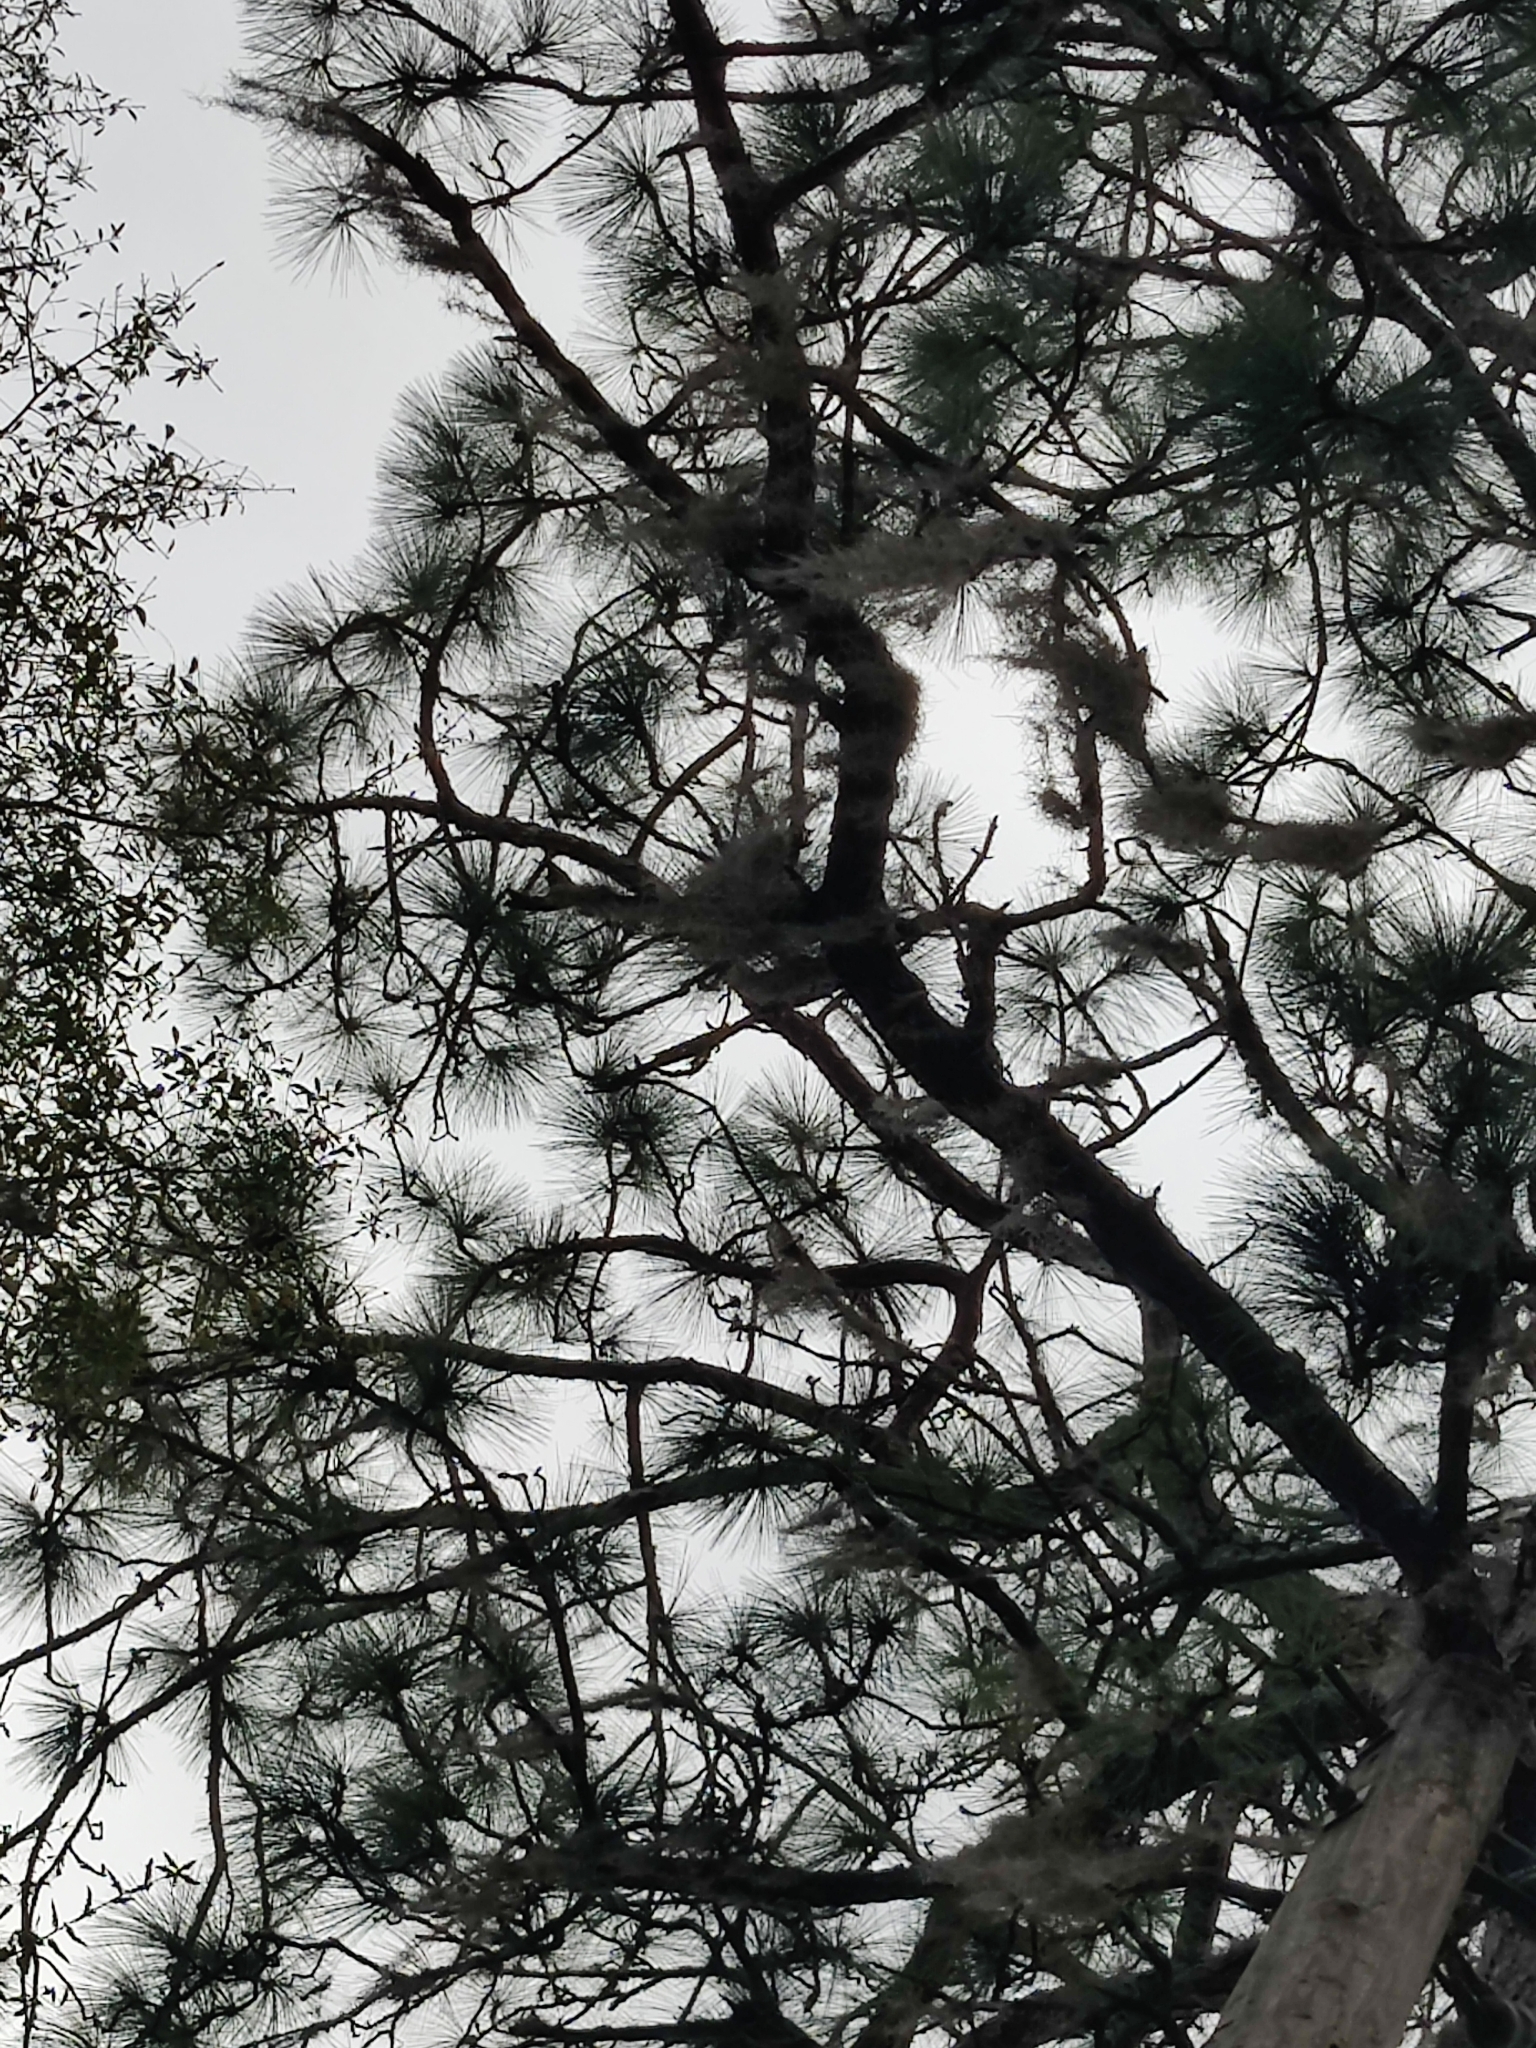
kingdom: Plantae
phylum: Tracheophyta
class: Pinopsida
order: Pinales
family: Pinaceae
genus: Pinus
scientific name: Pinus palustris
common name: Longleaf pine
